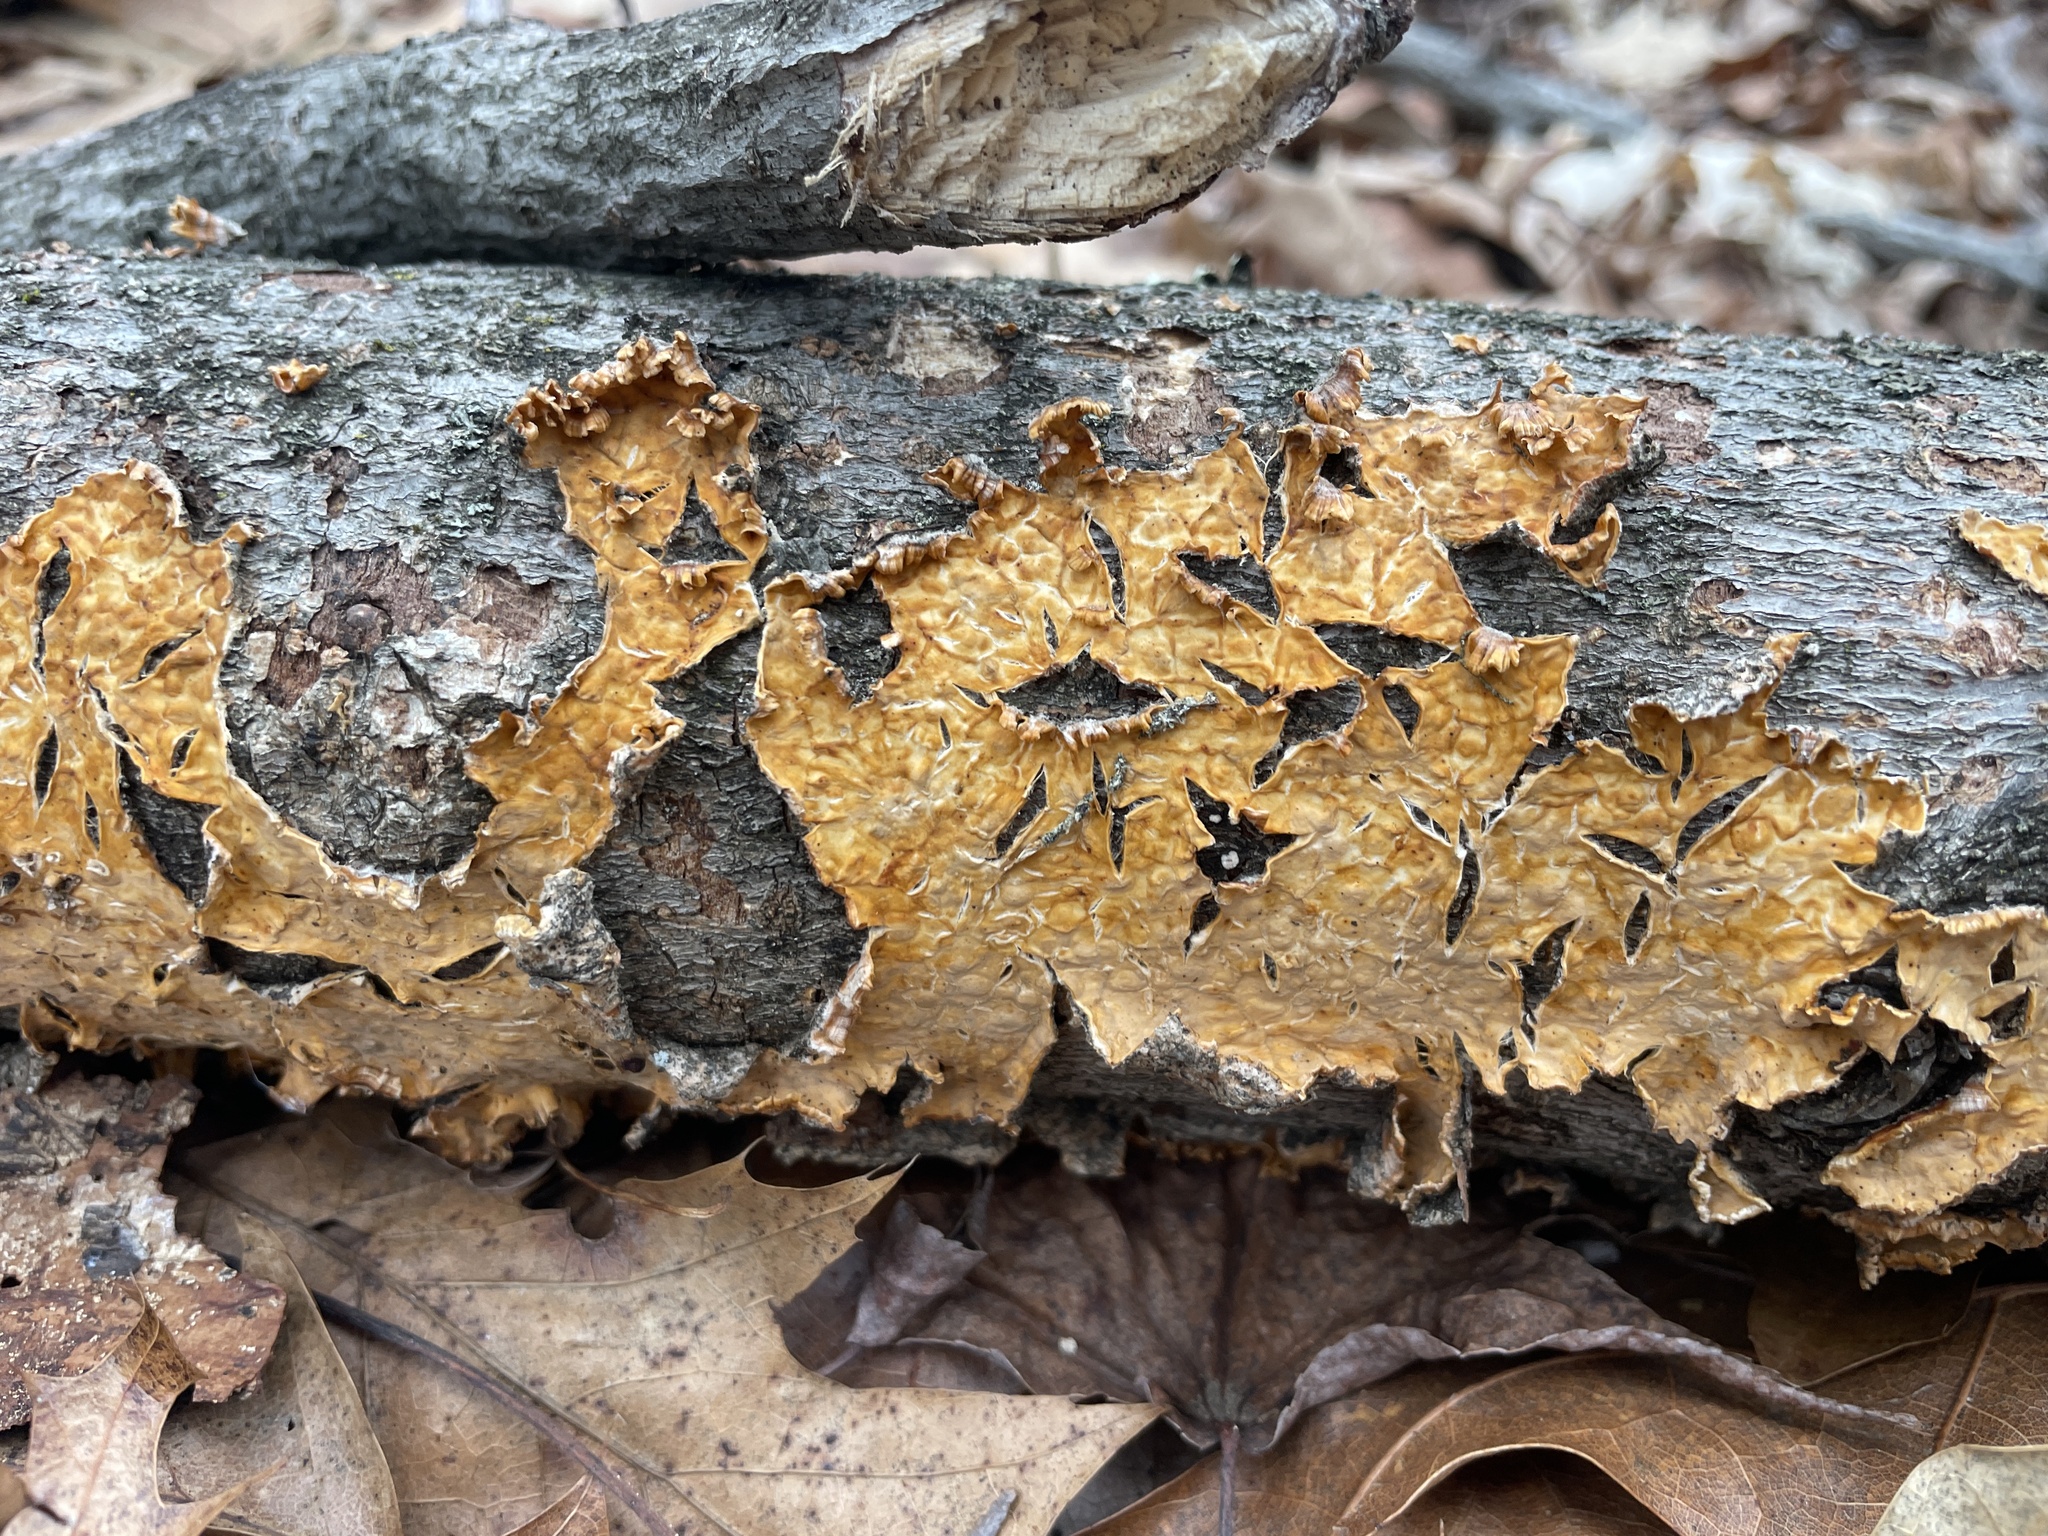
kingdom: Fungi
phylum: Basidiomycota
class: Agaricomycetes
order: Russulales
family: Stereaceae
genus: Stereum
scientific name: Stereum complicatum
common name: Crowded parchment
